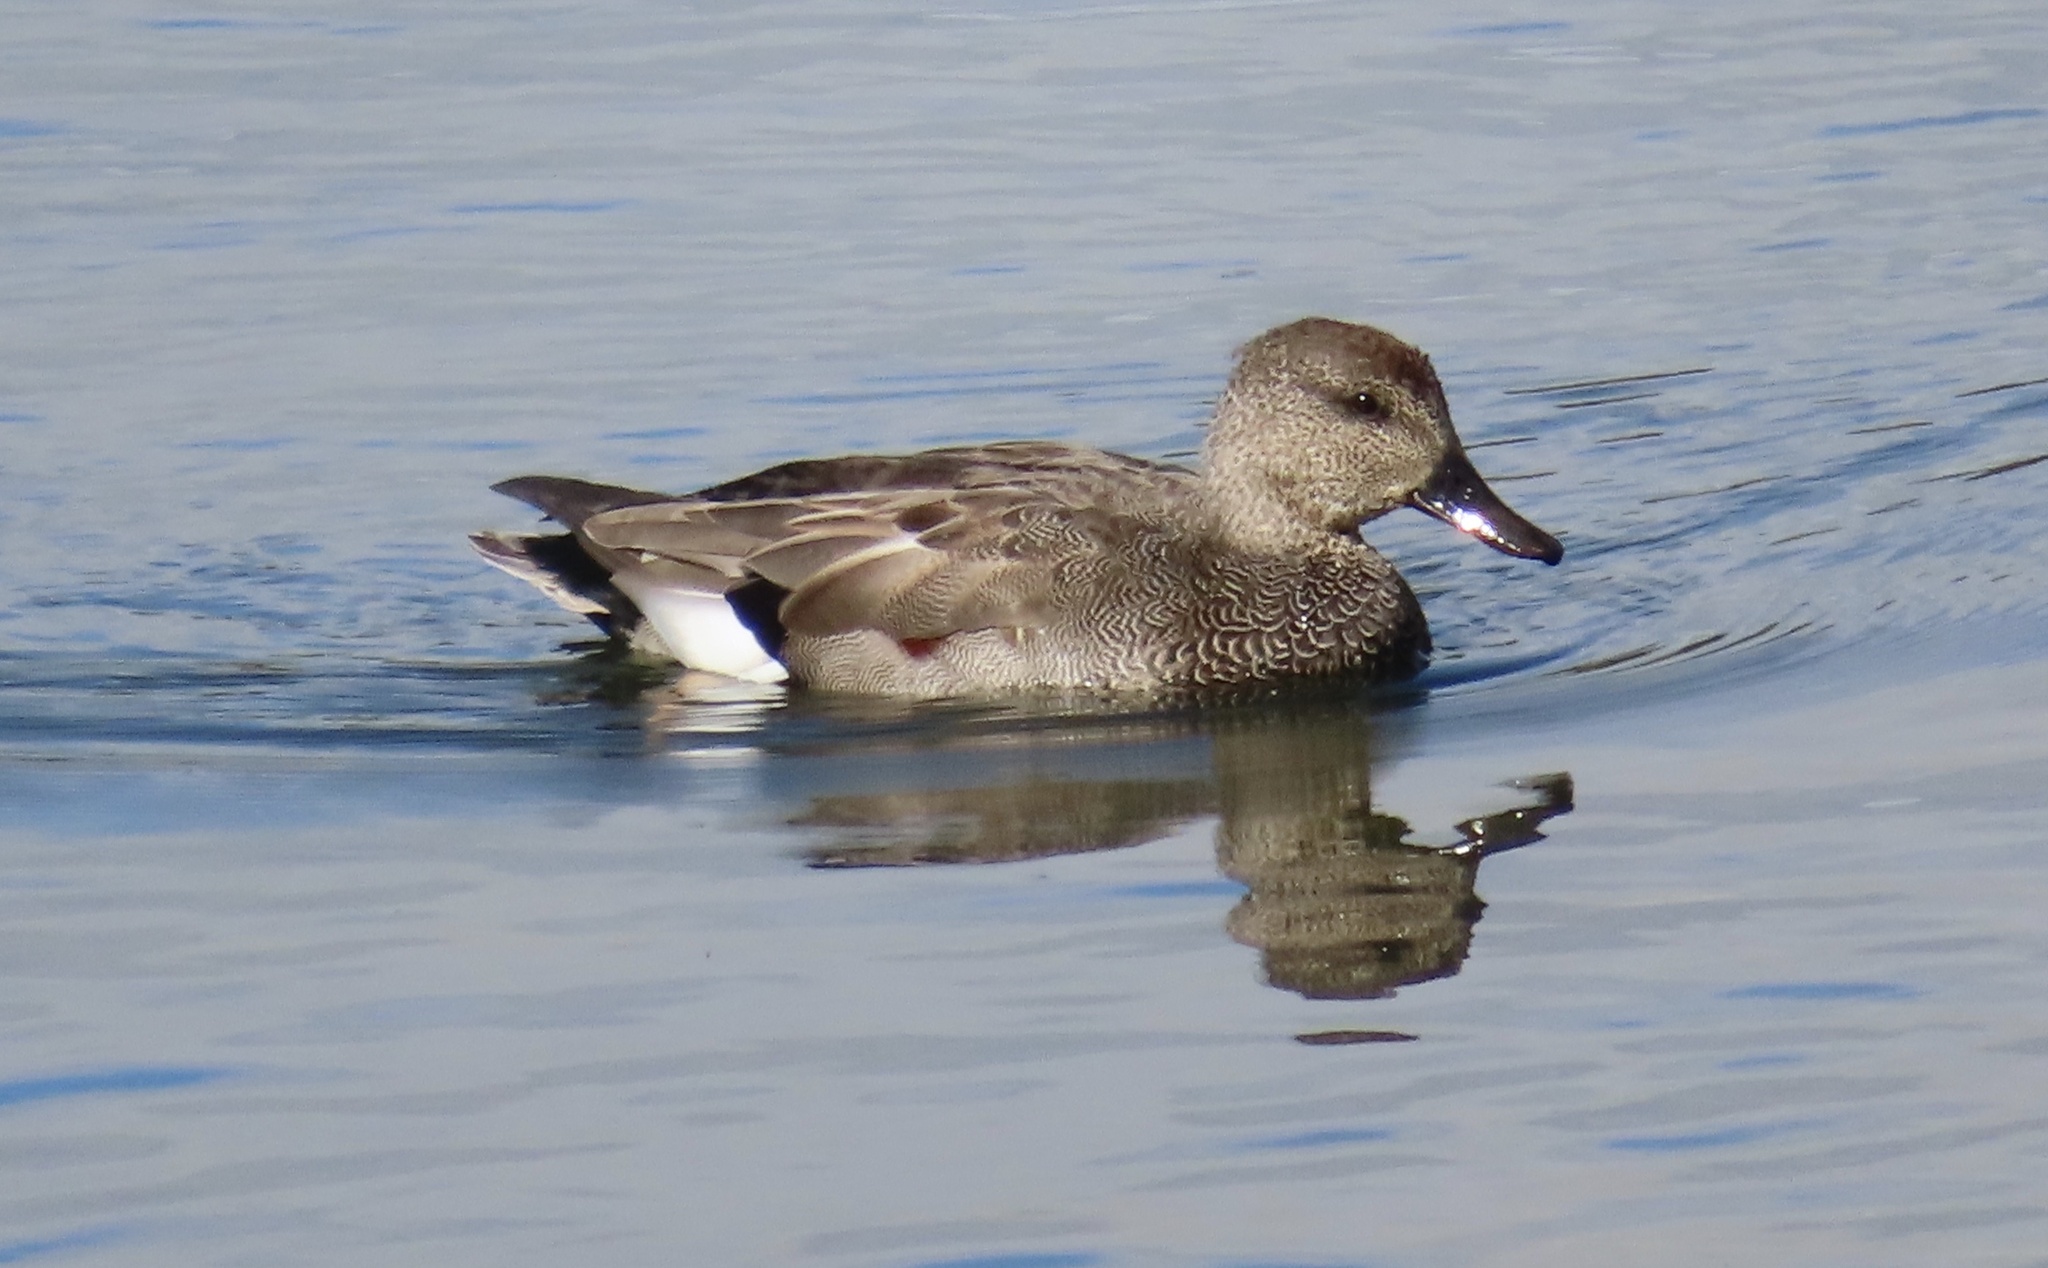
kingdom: Animalia
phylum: Chordata
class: Aves
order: Anseriformes
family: Anatidae
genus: Mareca
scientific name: Mareca strepera
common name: Gadwall
